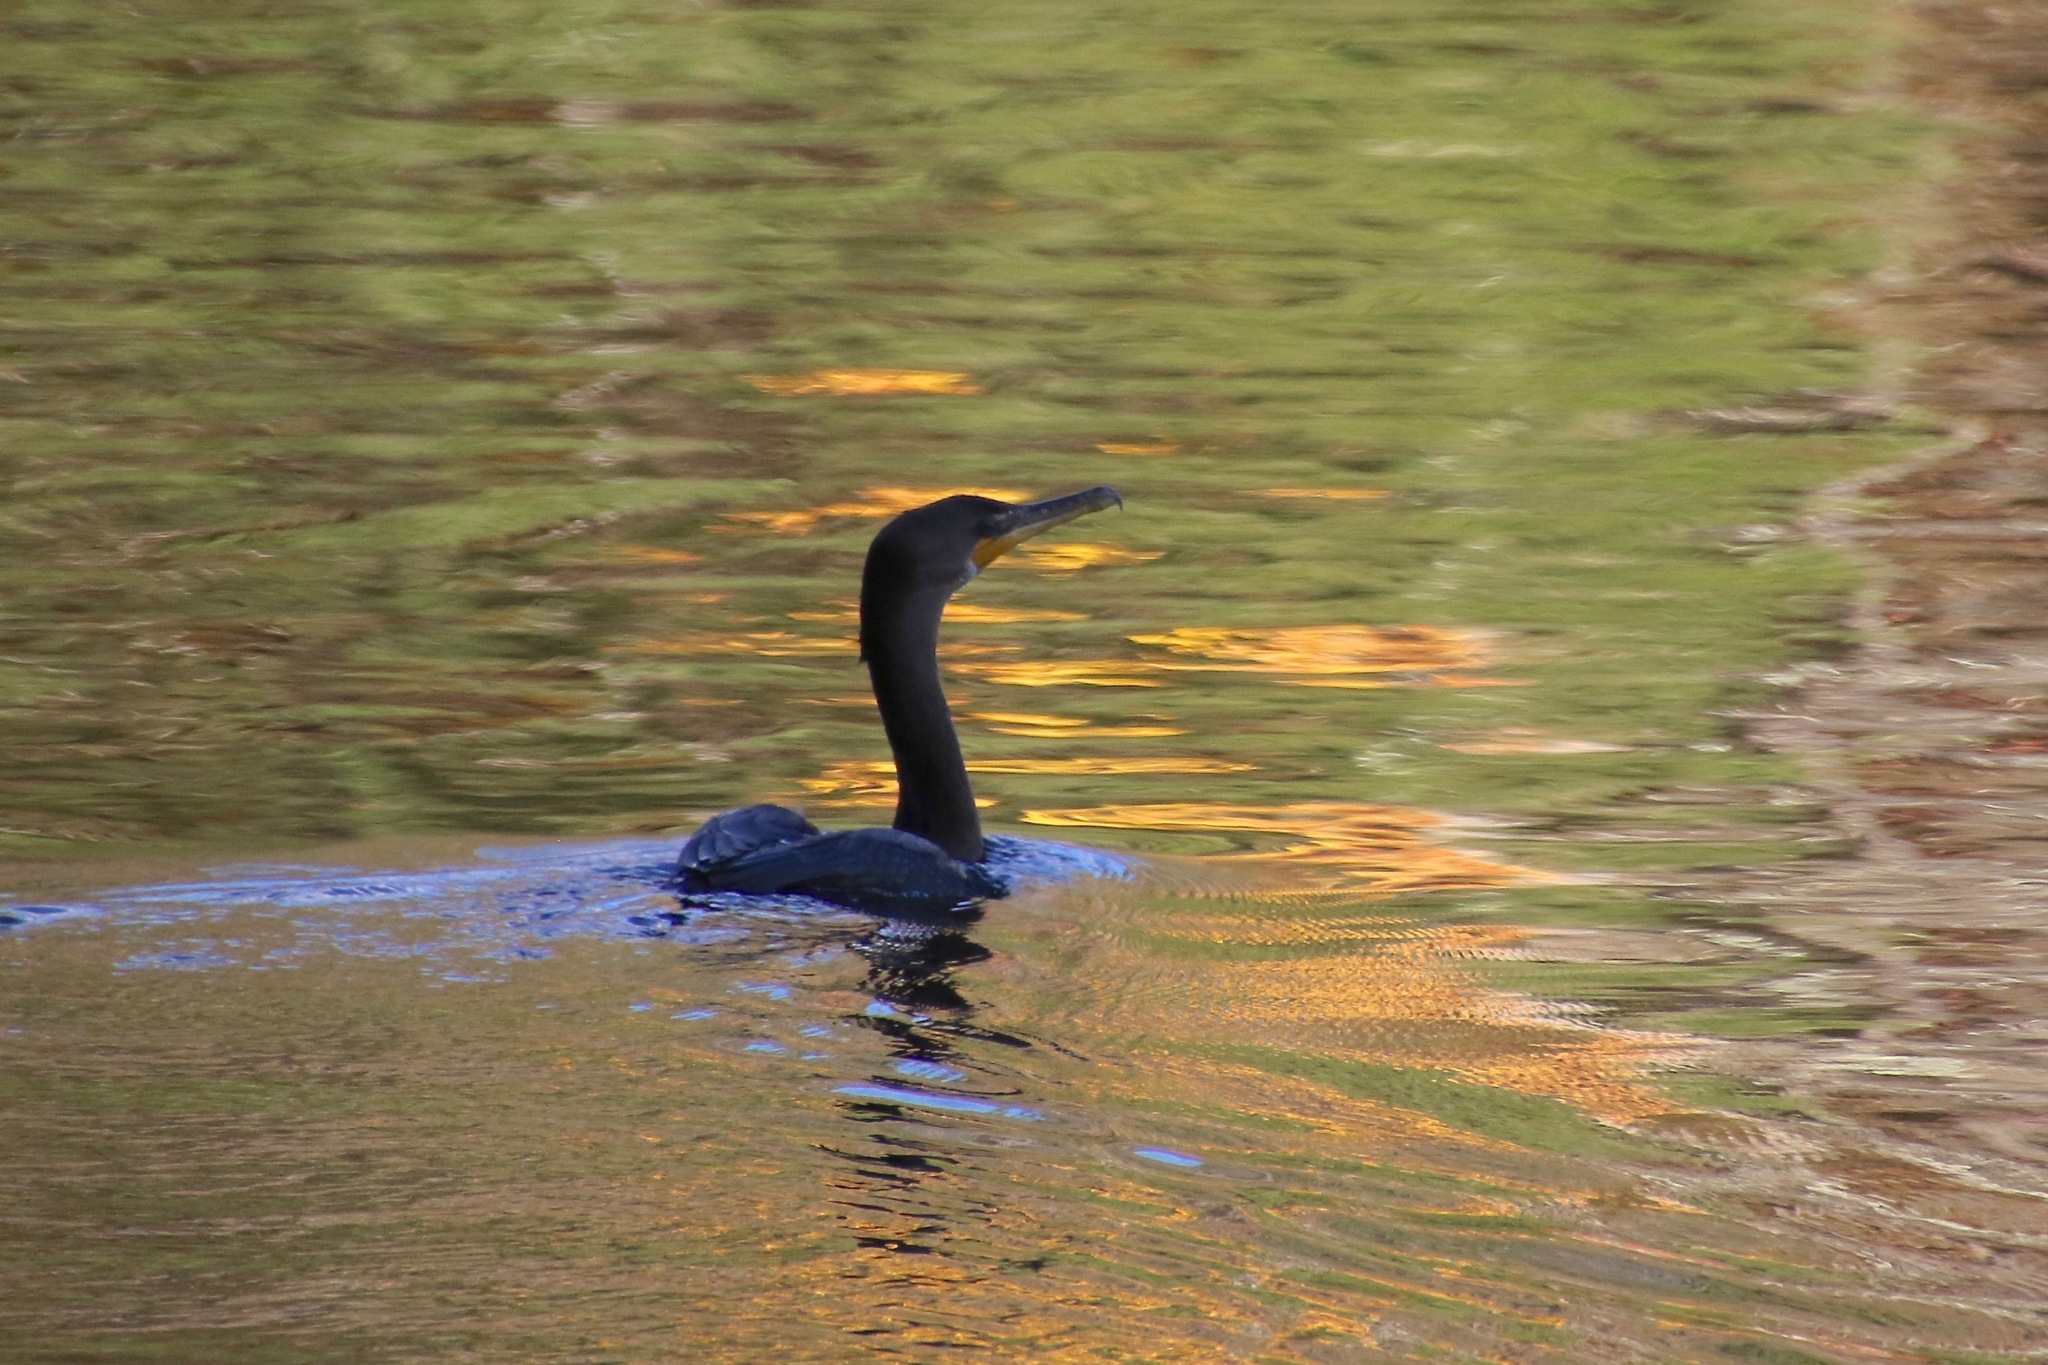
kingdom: Animalia
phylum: Chordata
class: Aves
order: Suliformes
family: Phalacrocoracidae
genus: Phalacrocorax
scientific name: Phalacrocorax auritus
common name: Double-crested cormorant
